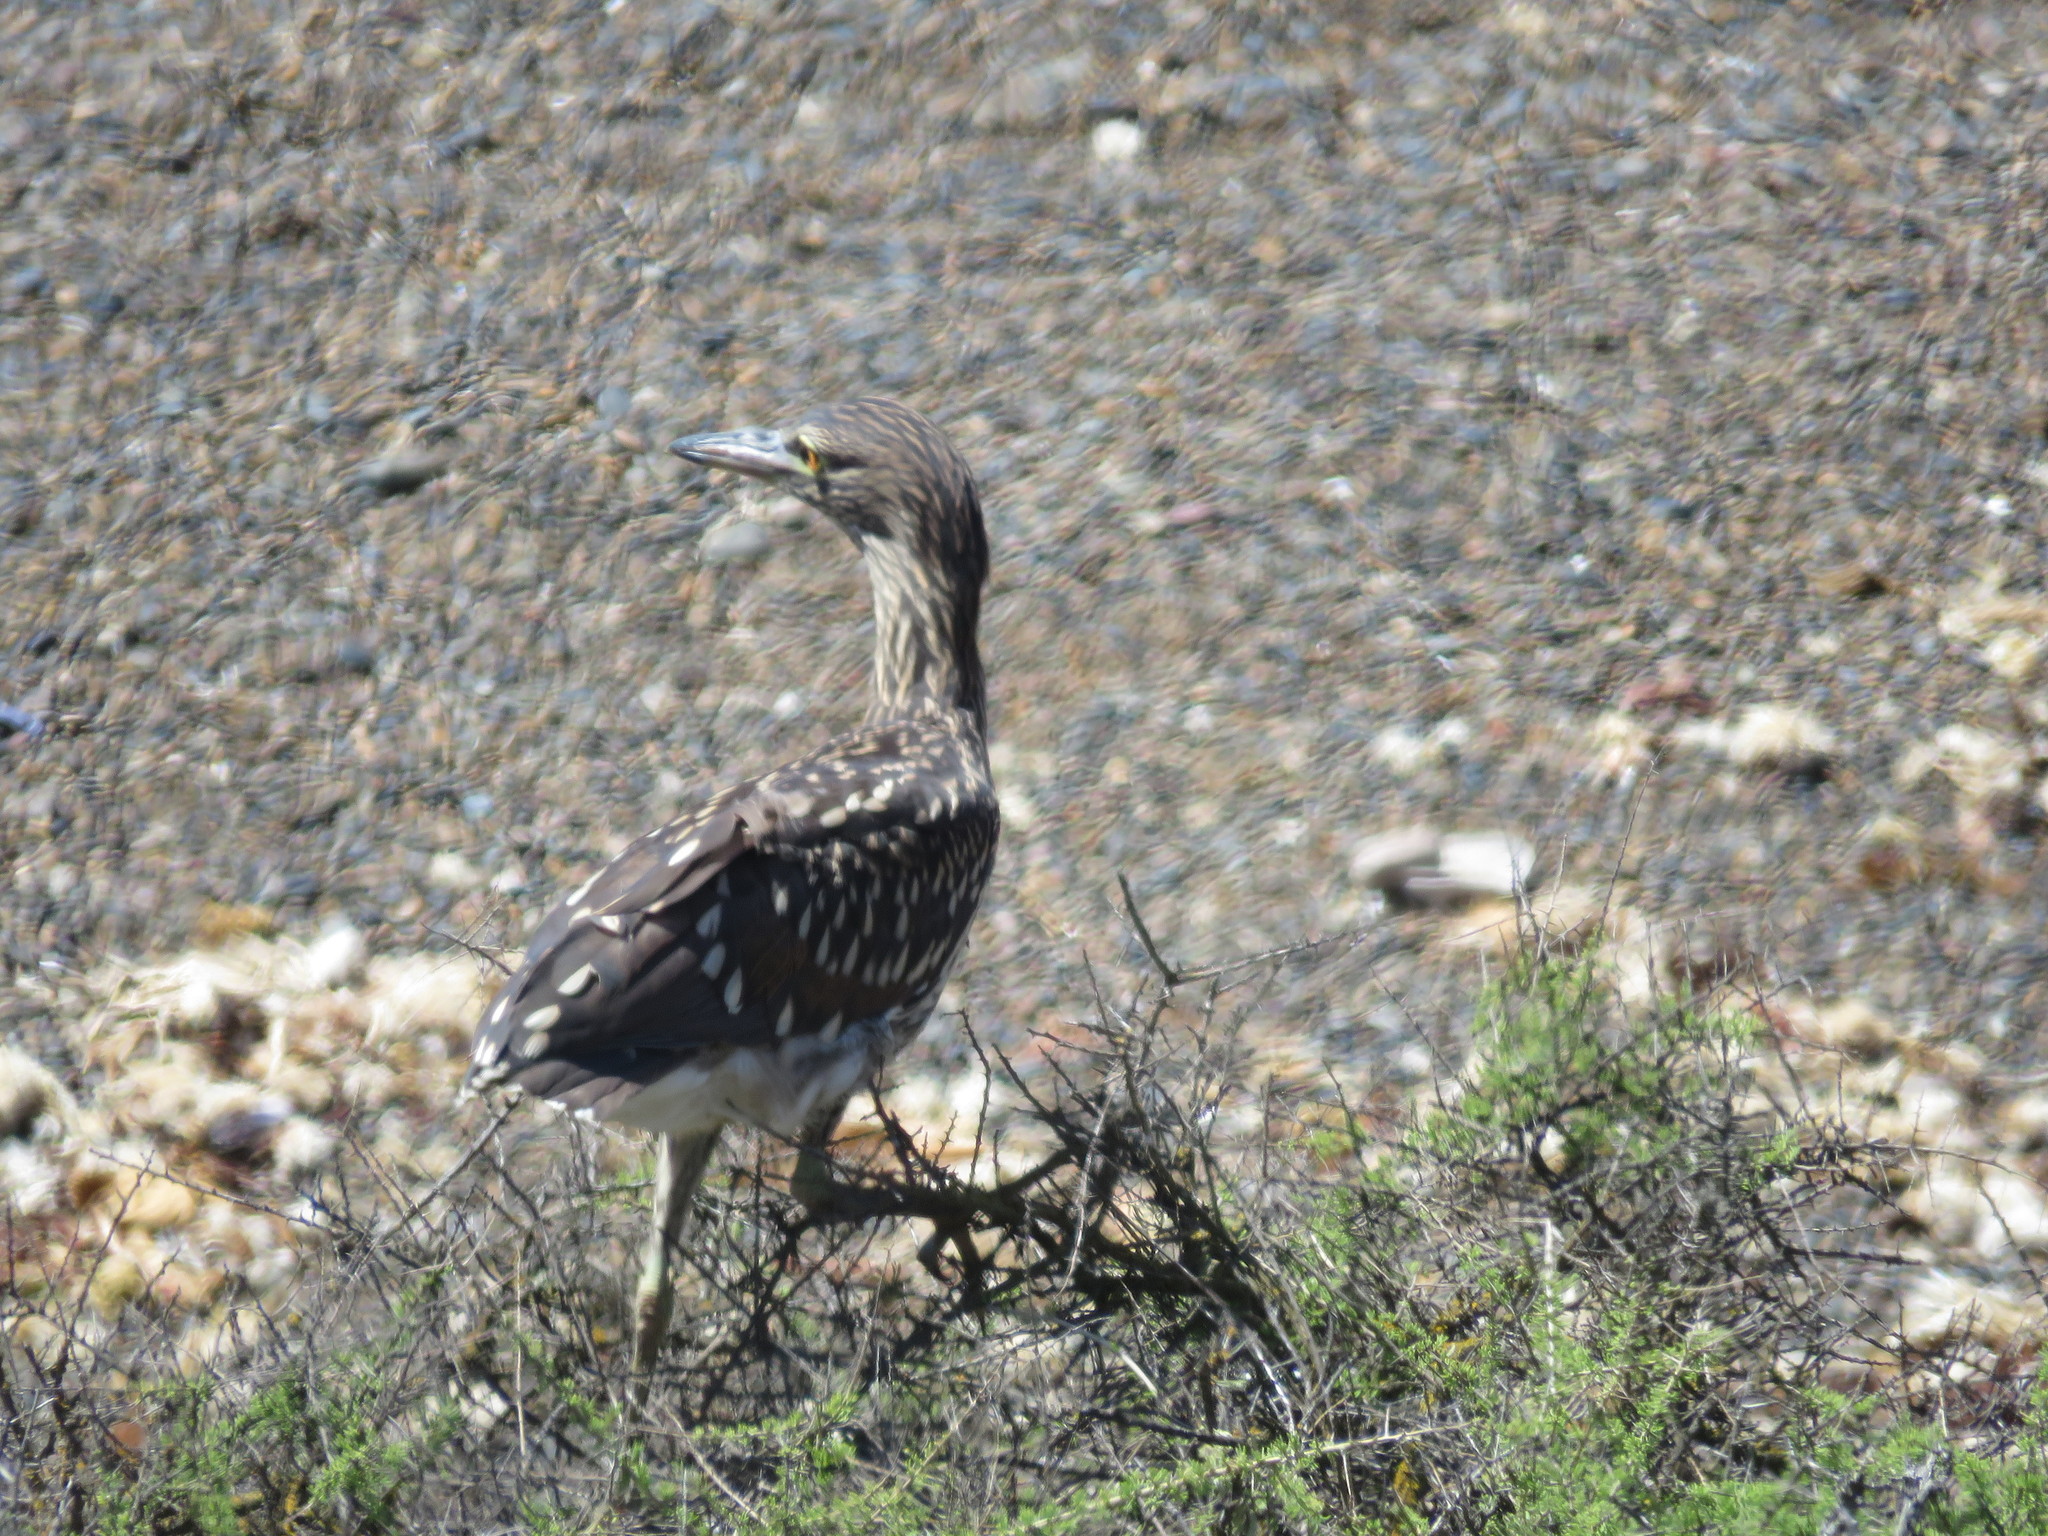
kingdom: Animalia
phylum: Chordata
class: Aves
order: Pelecaniformes
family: Ardeidae
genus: Nycticorax
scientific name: Nycticorax nycticorax
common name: Black-crowned night heron
